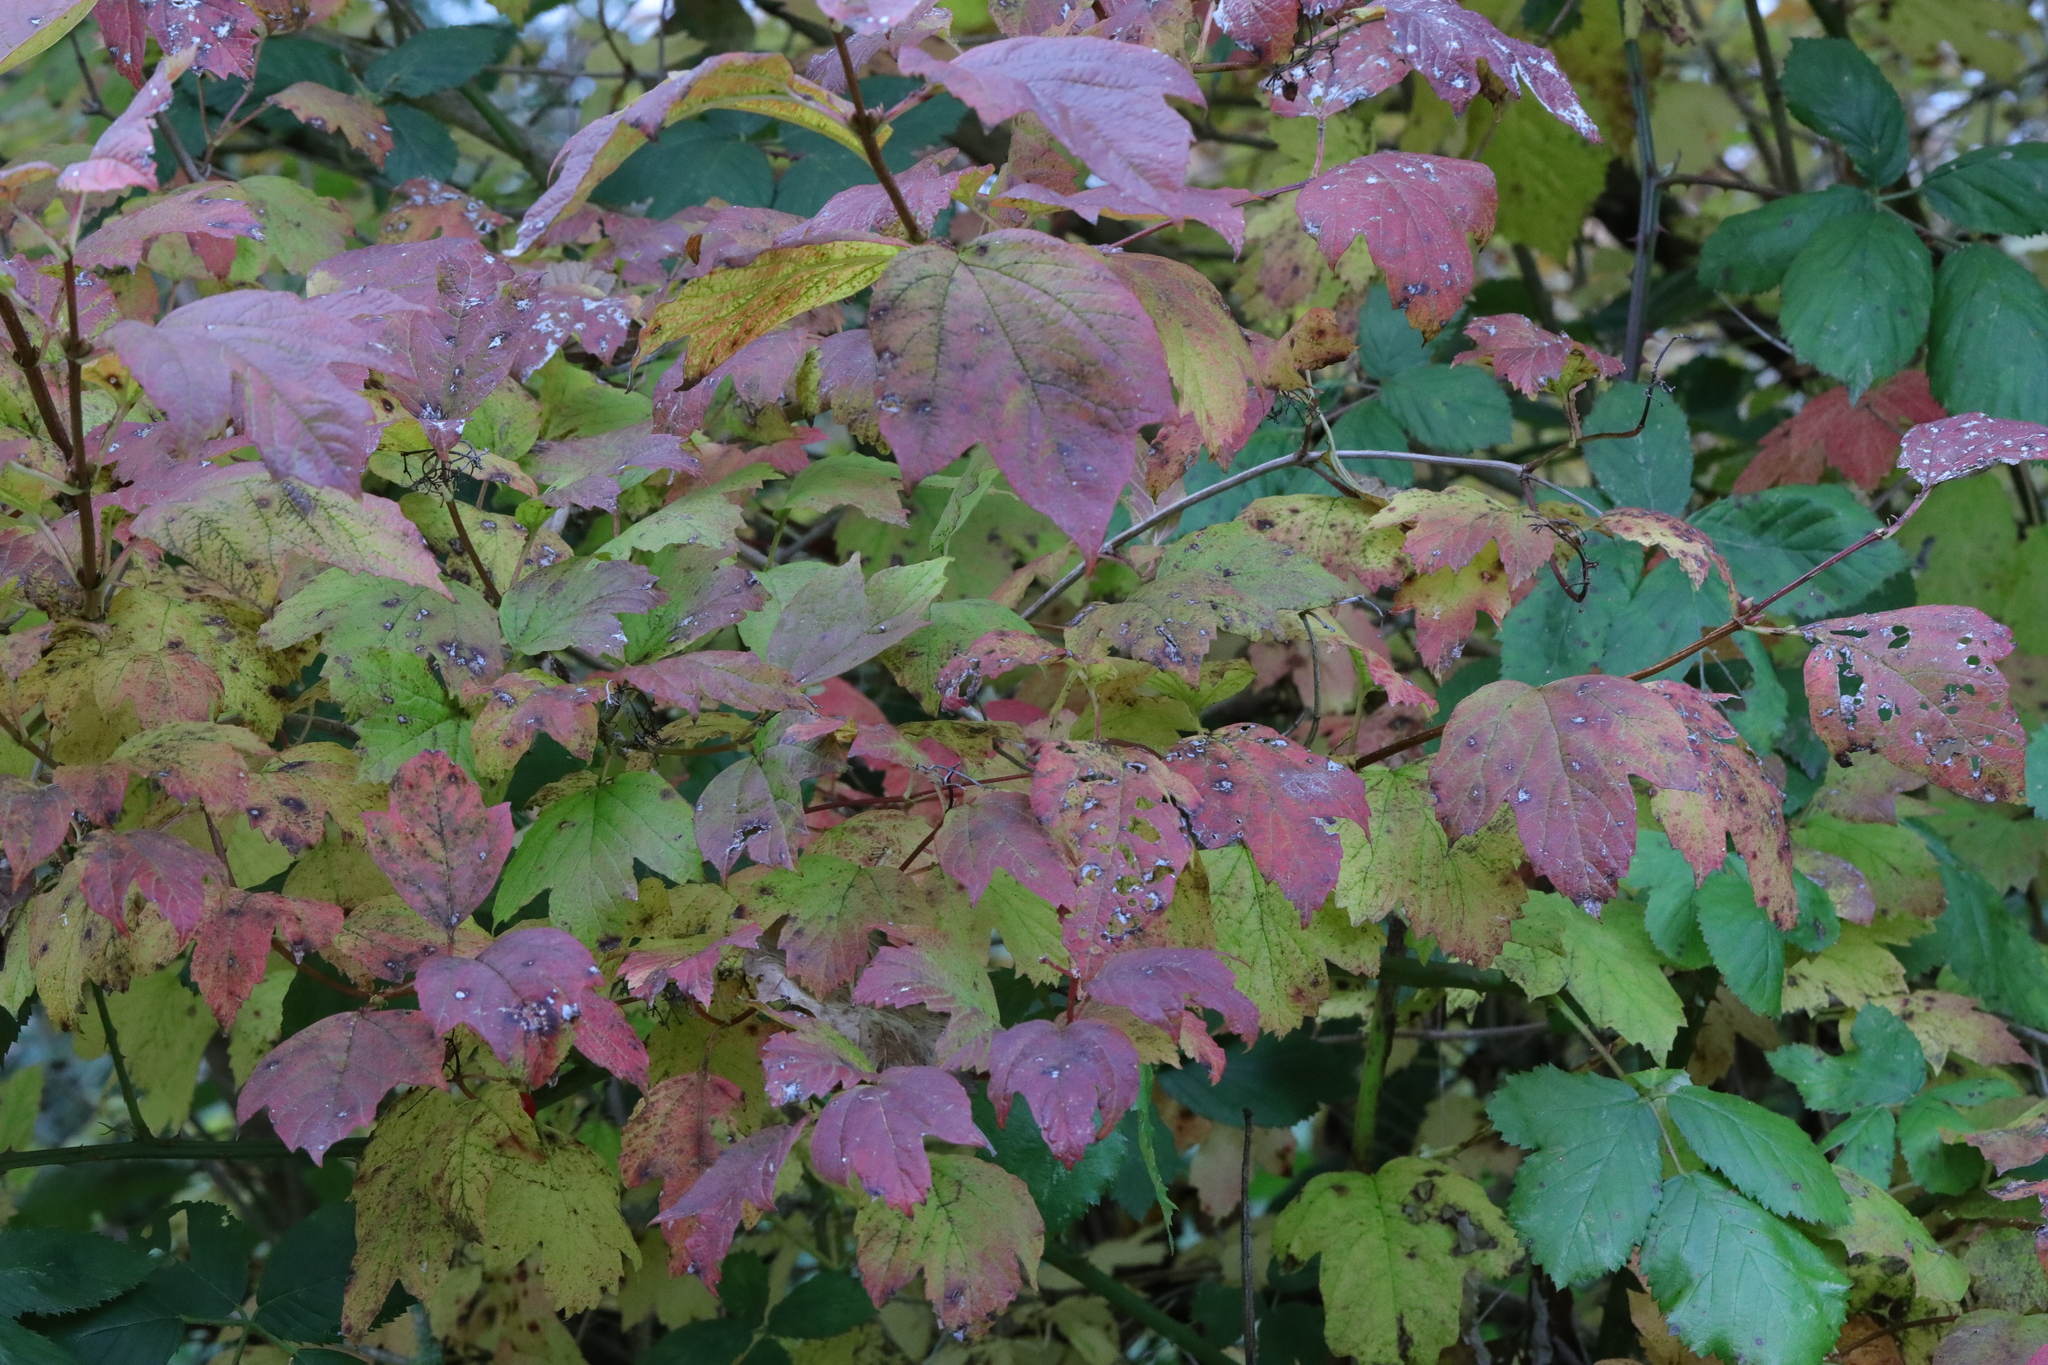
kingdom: Plantae
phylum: Tracheophyta
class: Magnoliopsida
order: Dipsacales
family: Viburnaceae
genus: Viburnum
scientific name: Viburnum opulus
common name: Guelder-rose
